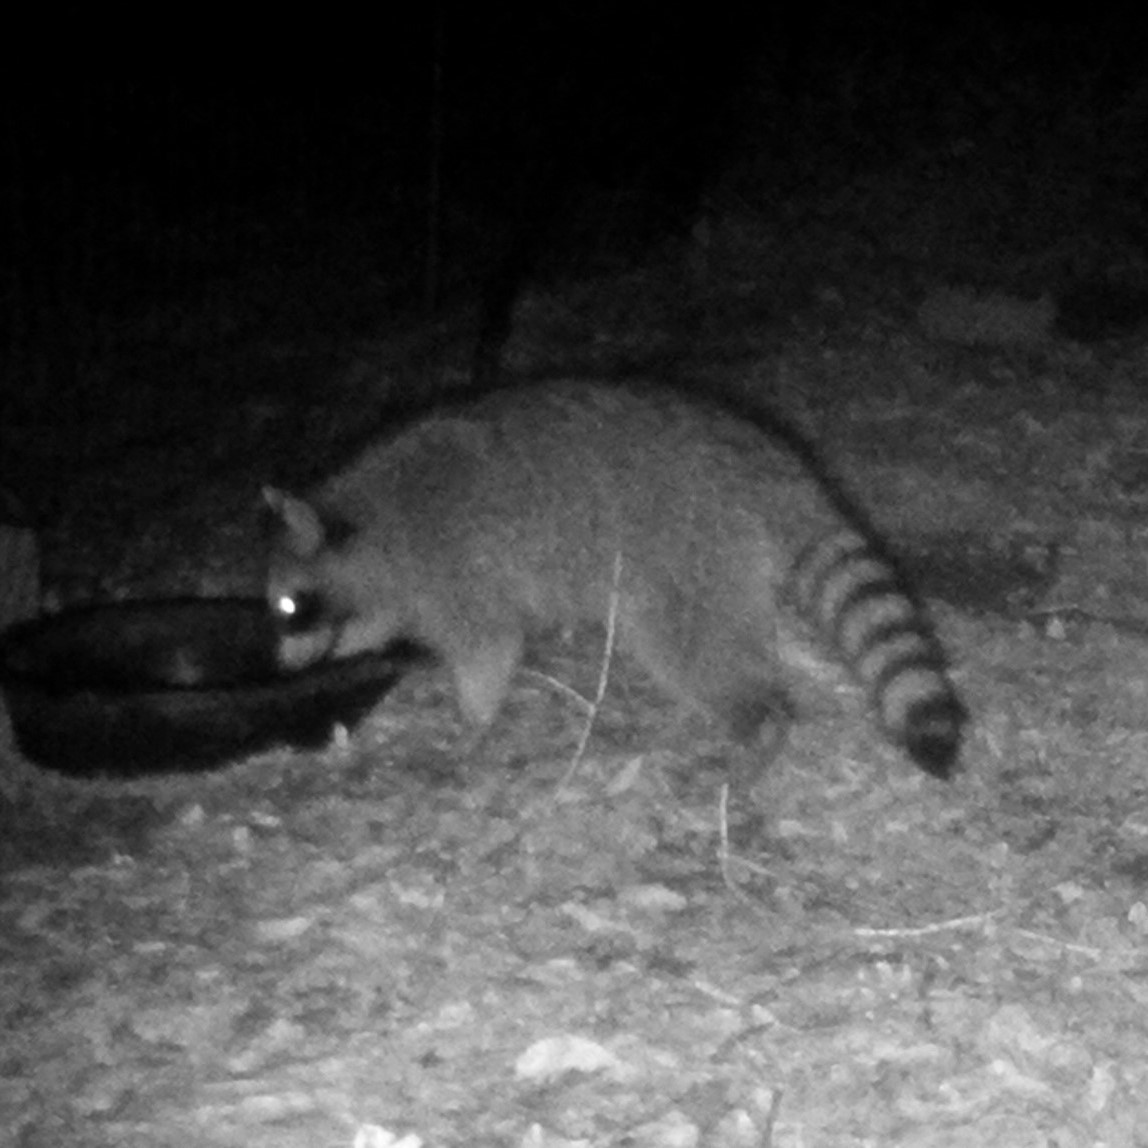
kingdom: Animalia
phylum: Chordata
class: Mammalia
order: Carnivora
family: Procyonidae
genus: Procyon
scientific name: Procyon lotor
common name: Raccoon
